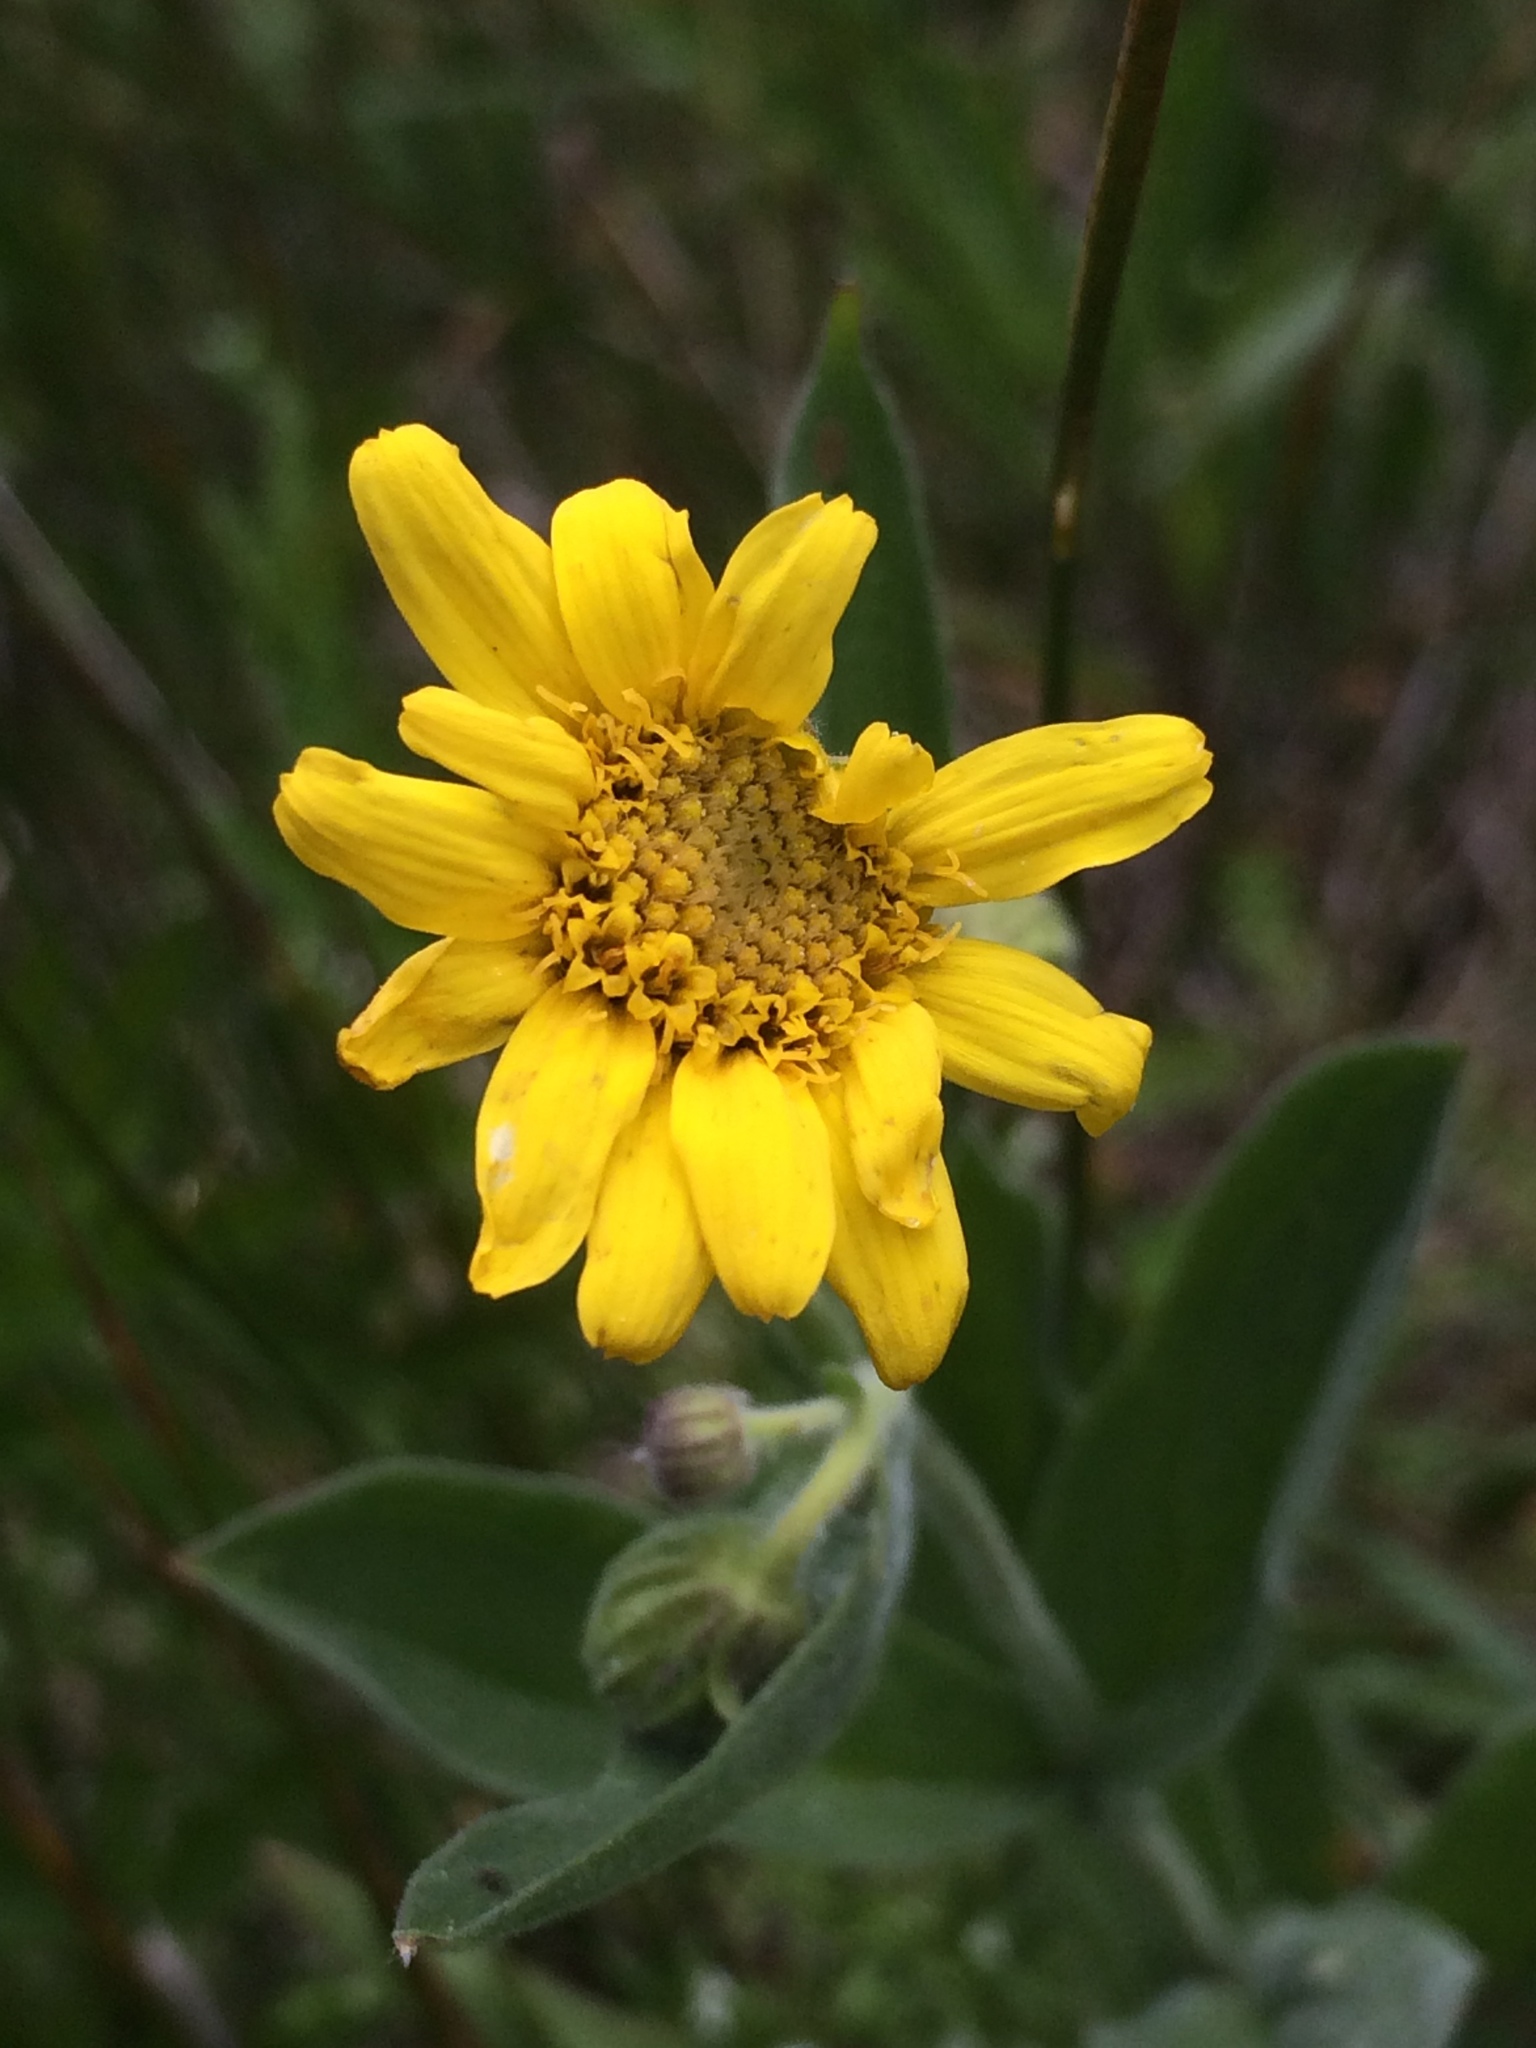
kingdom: Plantae
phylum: Tracheophyta
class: Magnoliopsida
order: Asterales
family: Asteraceae
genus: Arnica
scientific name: Arnica chamissonis
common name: Leafy arnica
